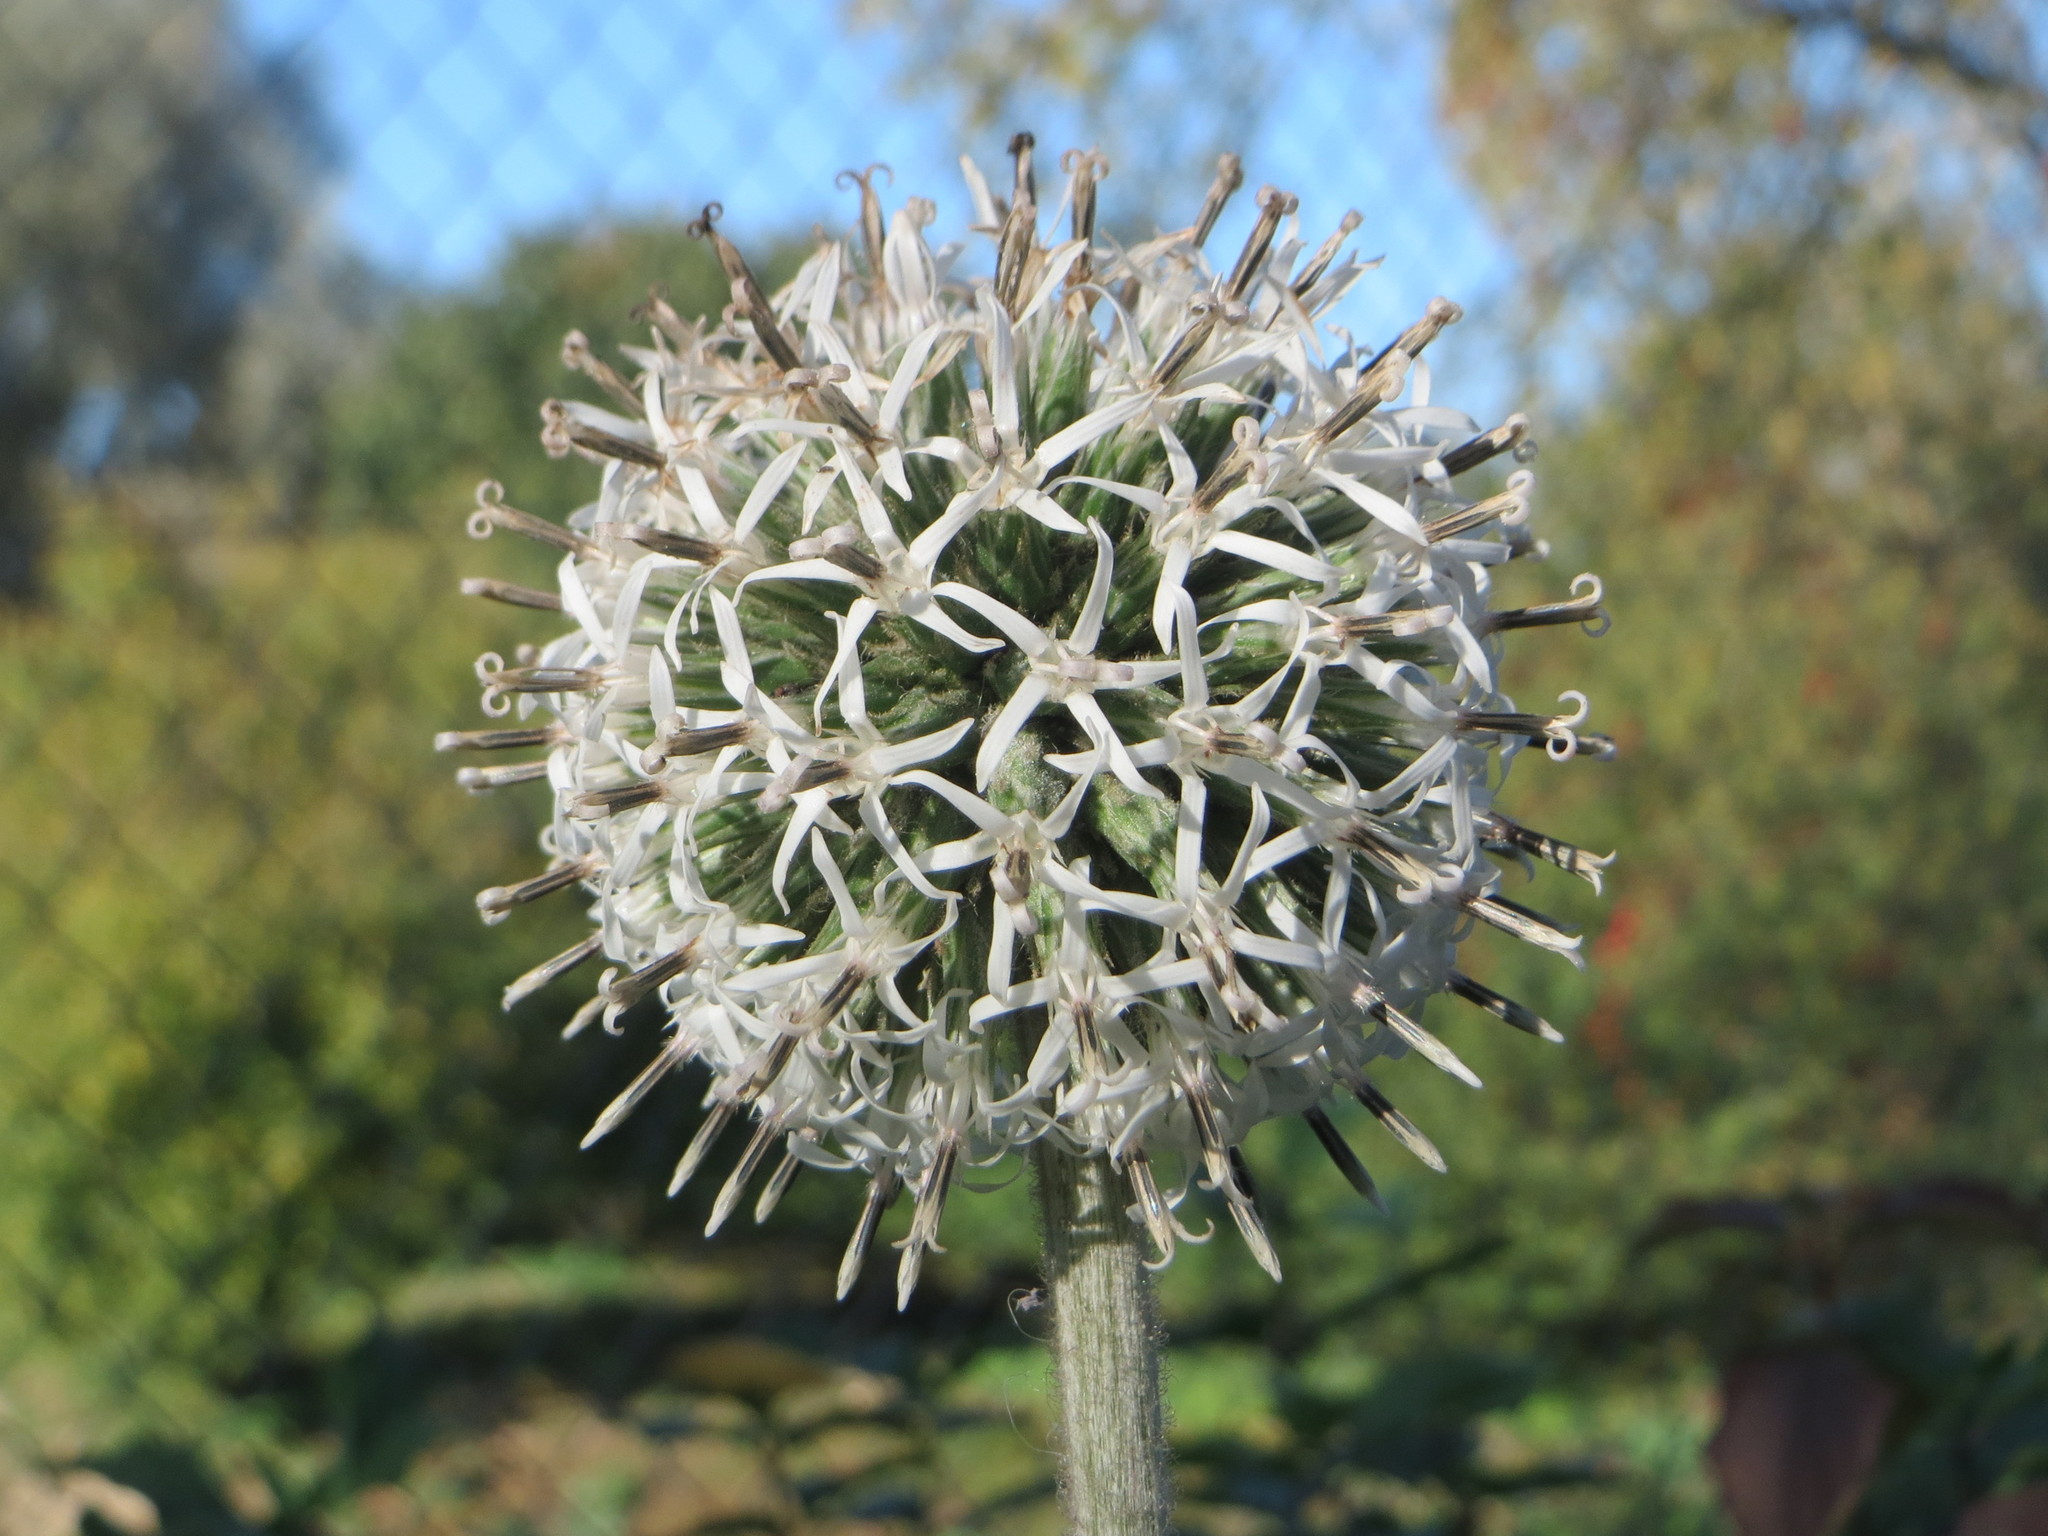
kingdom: Plantae
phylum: Tracheophyta
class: Magnoliopsida
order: Asterales
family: Asteraceae
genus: Echinops
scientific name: Echinops sphaerocephalus
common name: Glandular globe-thistle
